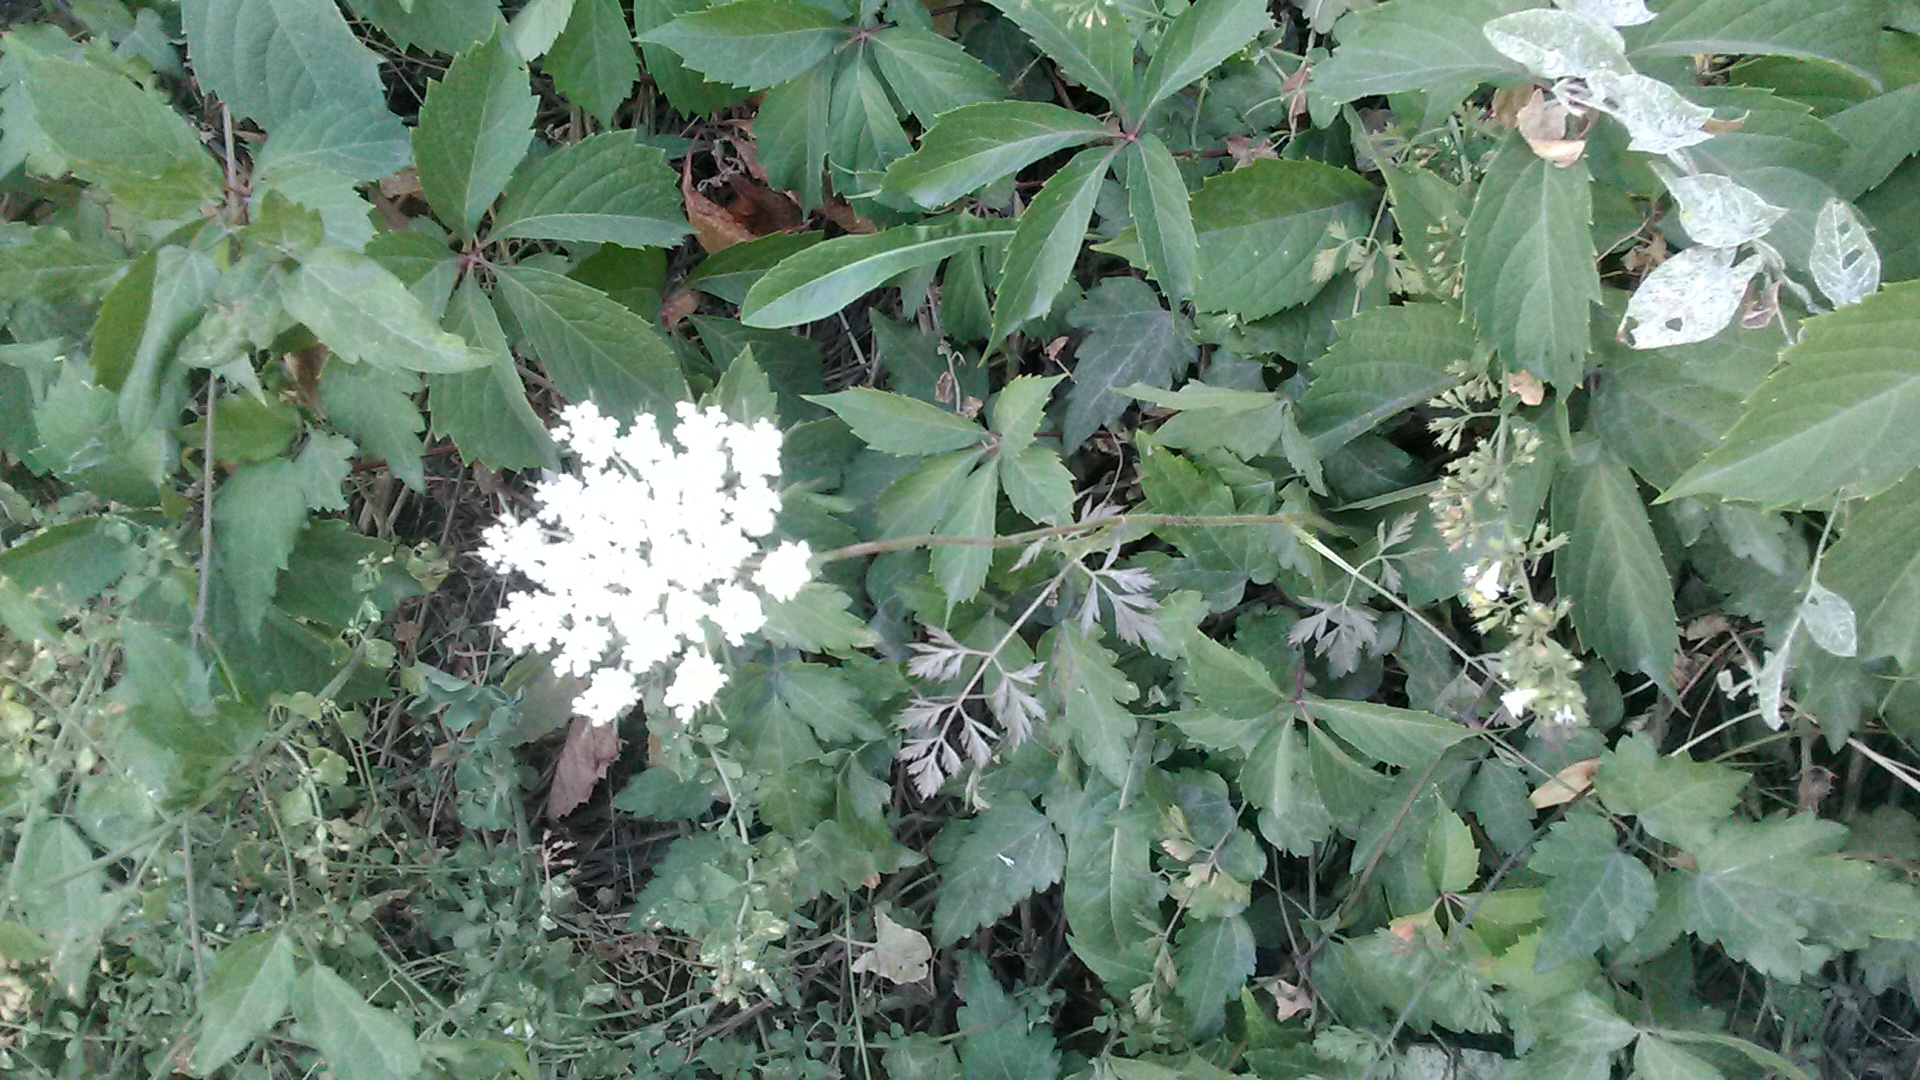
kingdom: Plantae
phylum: Tracheophyta
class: Magnoliopsida
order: Apiales
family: Apiaceae
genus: Daucus
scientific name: Daucus carota
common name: Wild carrot
